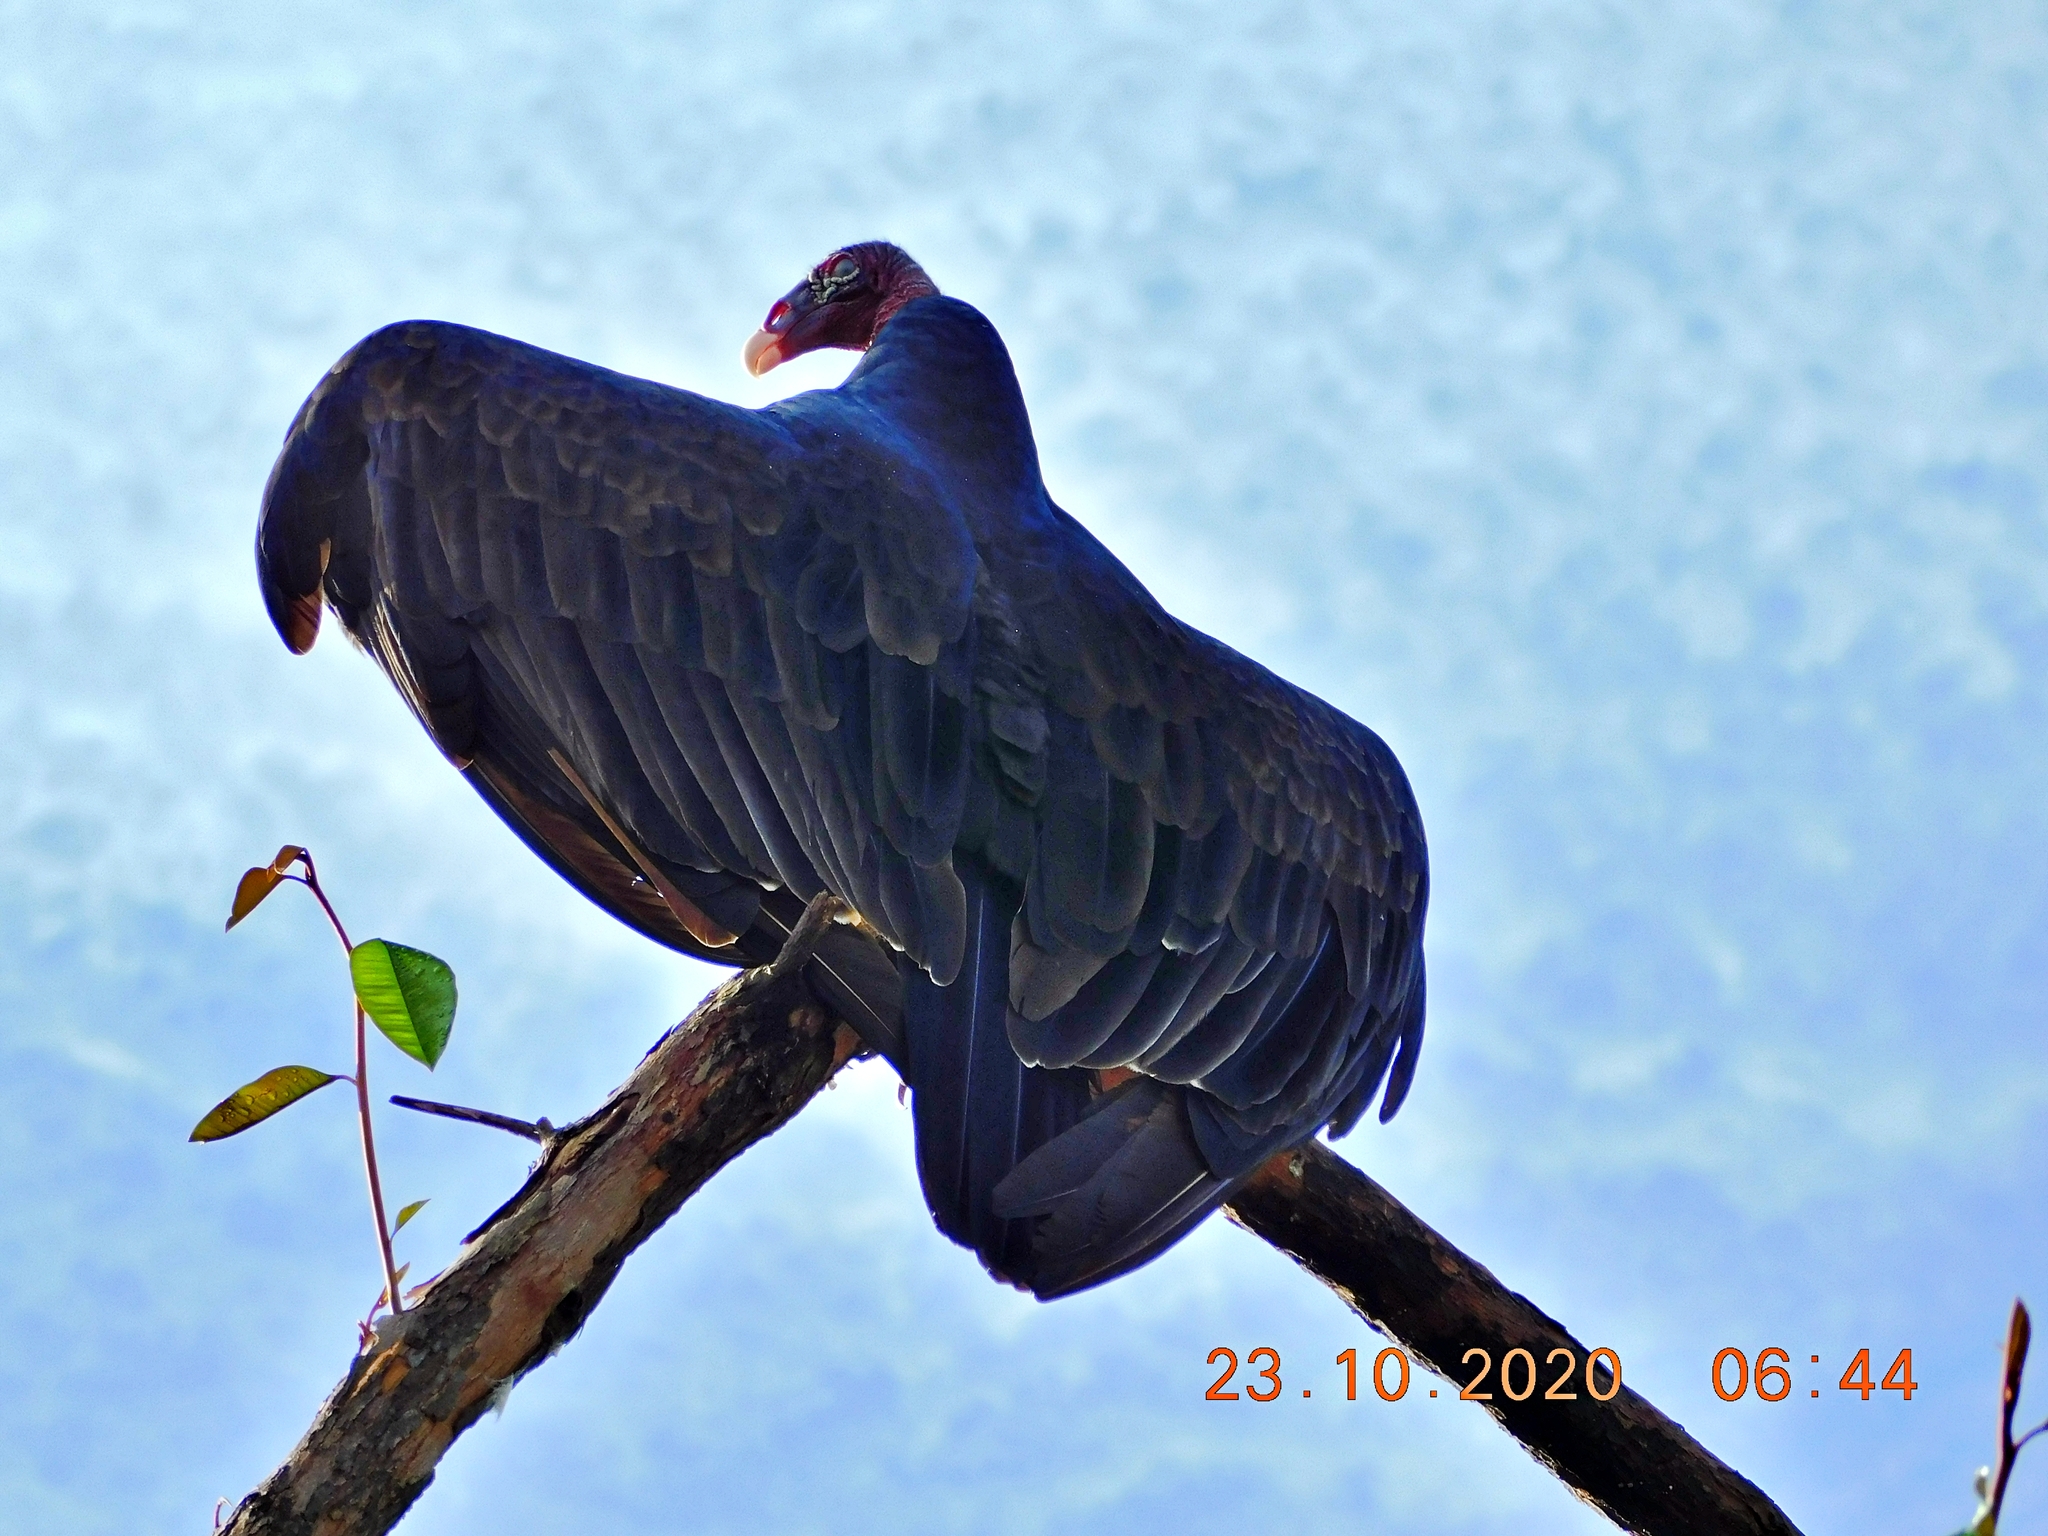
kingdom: Animalia
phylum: Chordata
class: Aves
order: Accipitriformes
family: Cathartidae
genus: Cathartes
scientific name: Cathartes aura
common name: Turkey vulture
